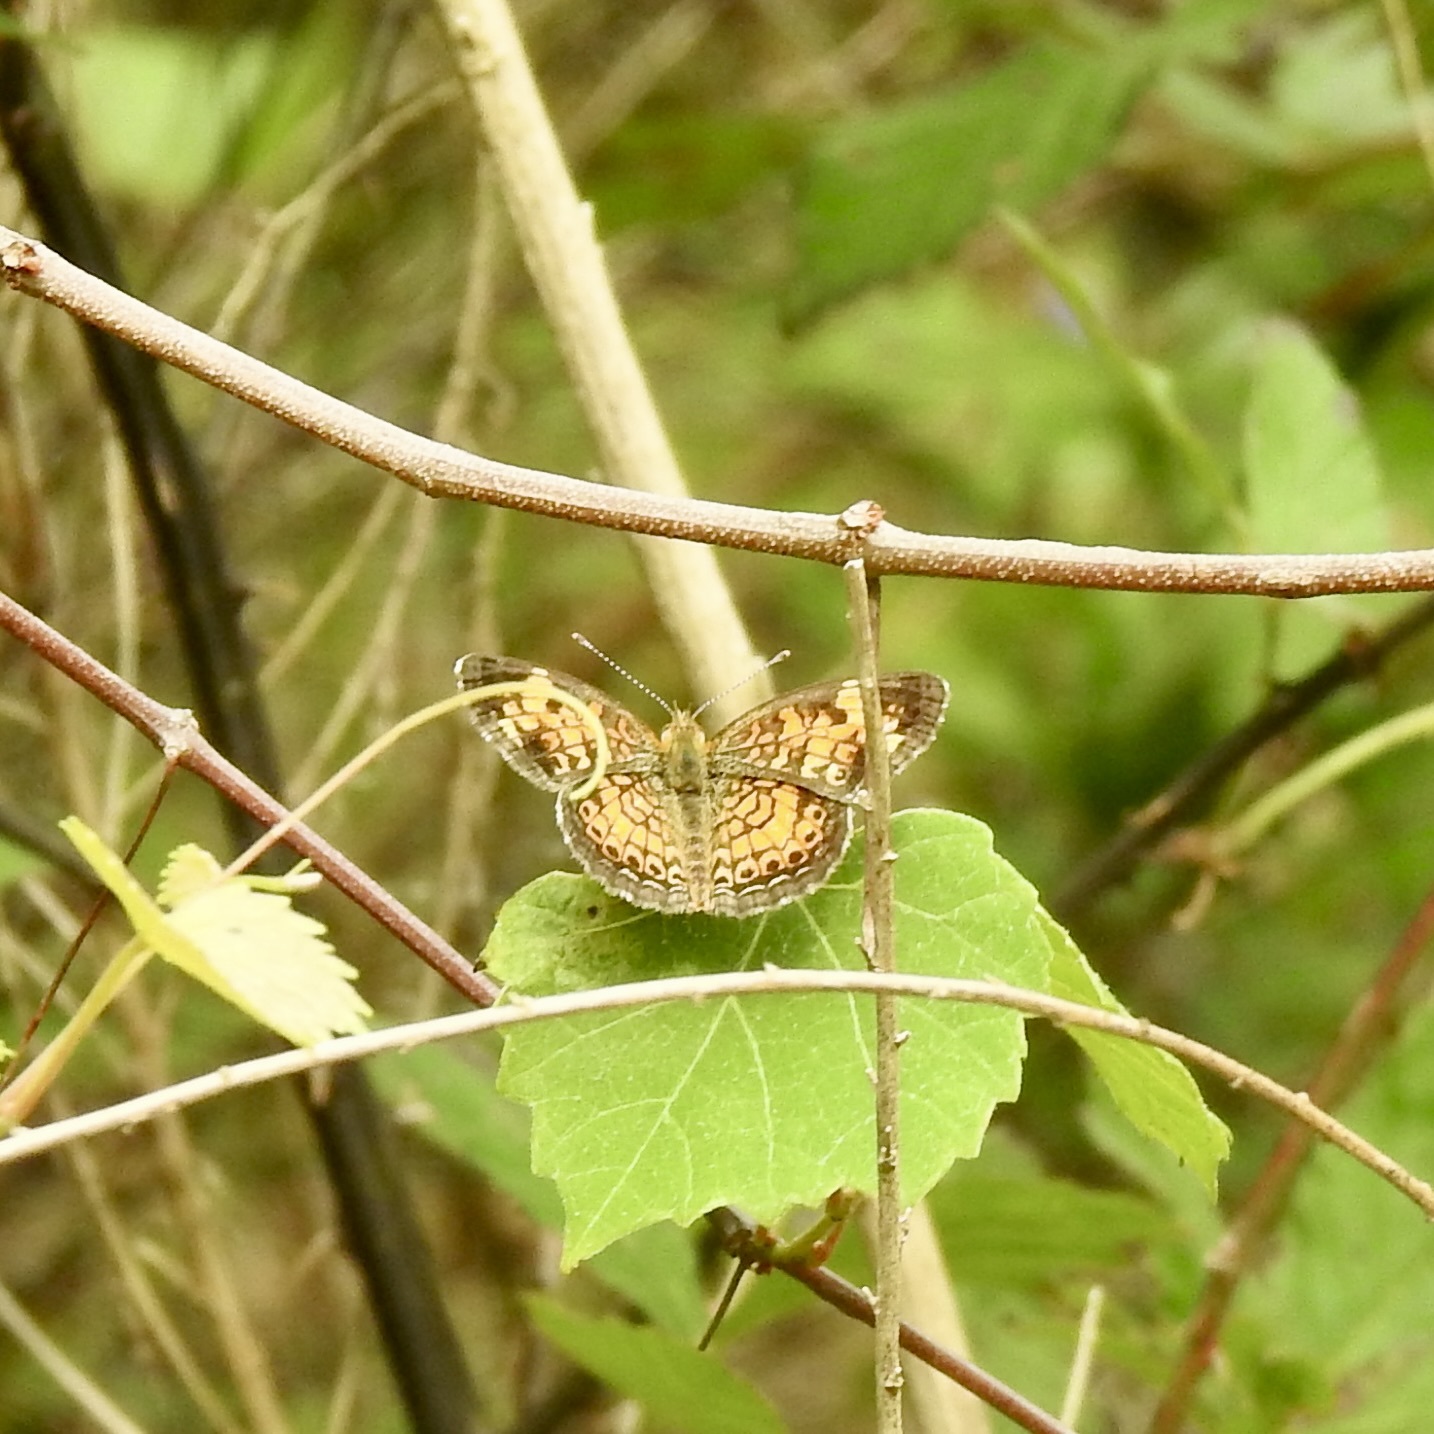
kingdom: Animalia
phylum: Arthropoda
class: Insecta
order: Lepidoptera
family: Nymphalidae
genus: Phyciodes
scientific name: Phyciodes tharos
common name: Pearl crescent
